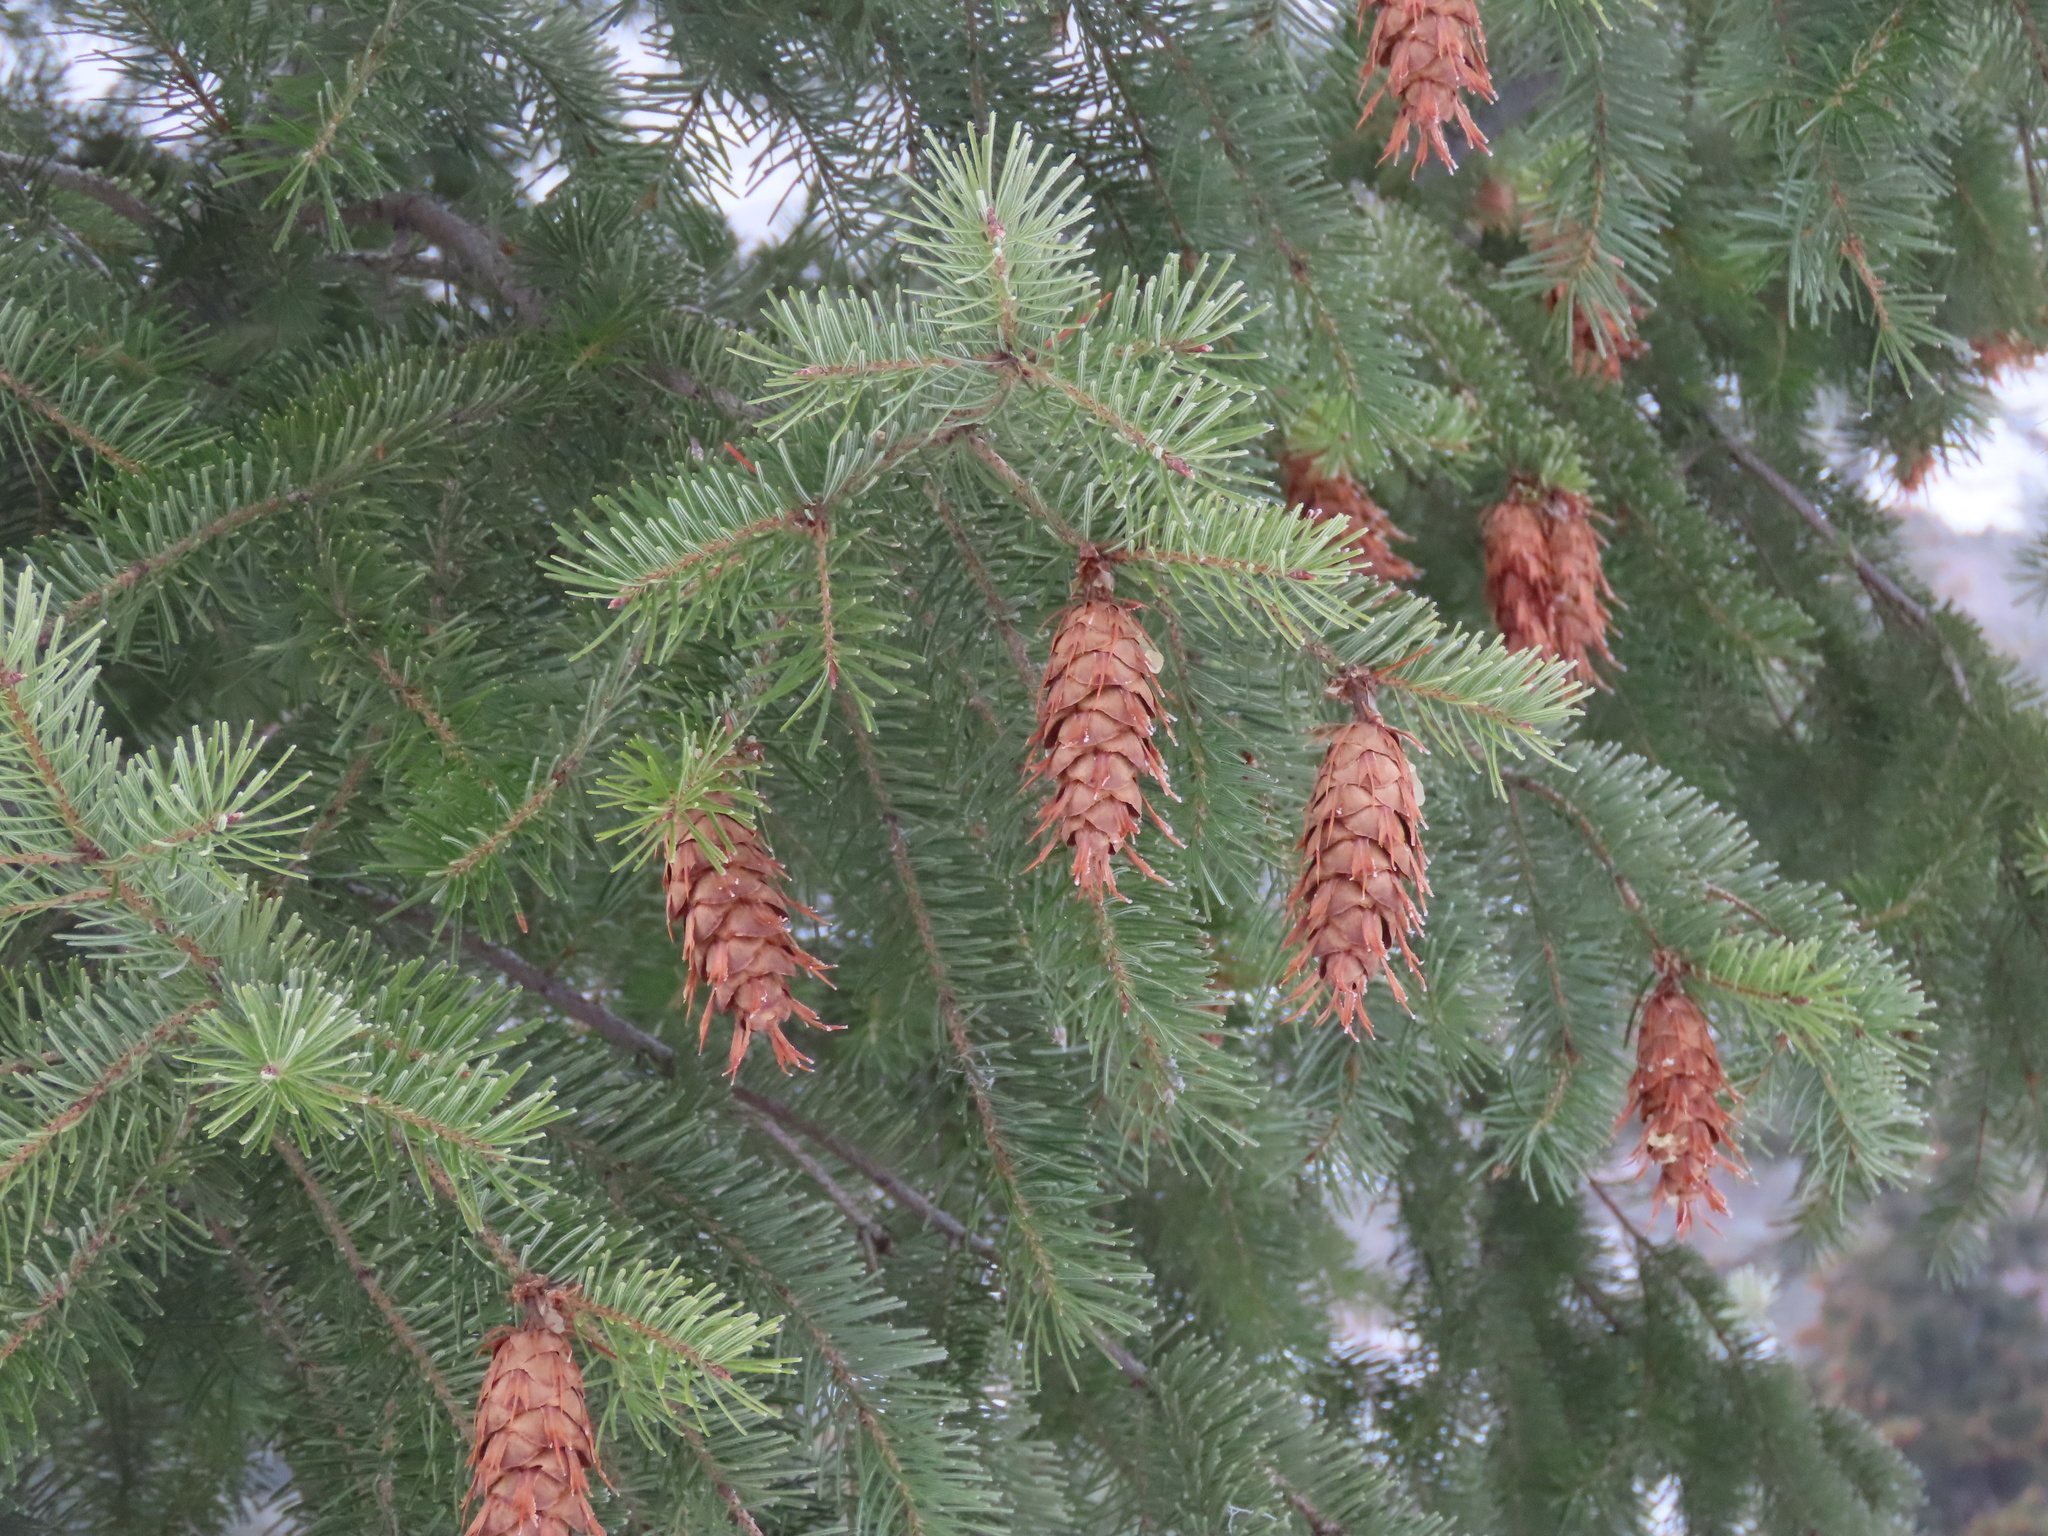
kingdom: Plantae
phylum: Tracheophyta
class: Pinopsida
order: Pinales
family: Pinaceae
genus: Pseudotsuga
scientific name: Pseudotsuga menziesii
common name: Douglas fir
